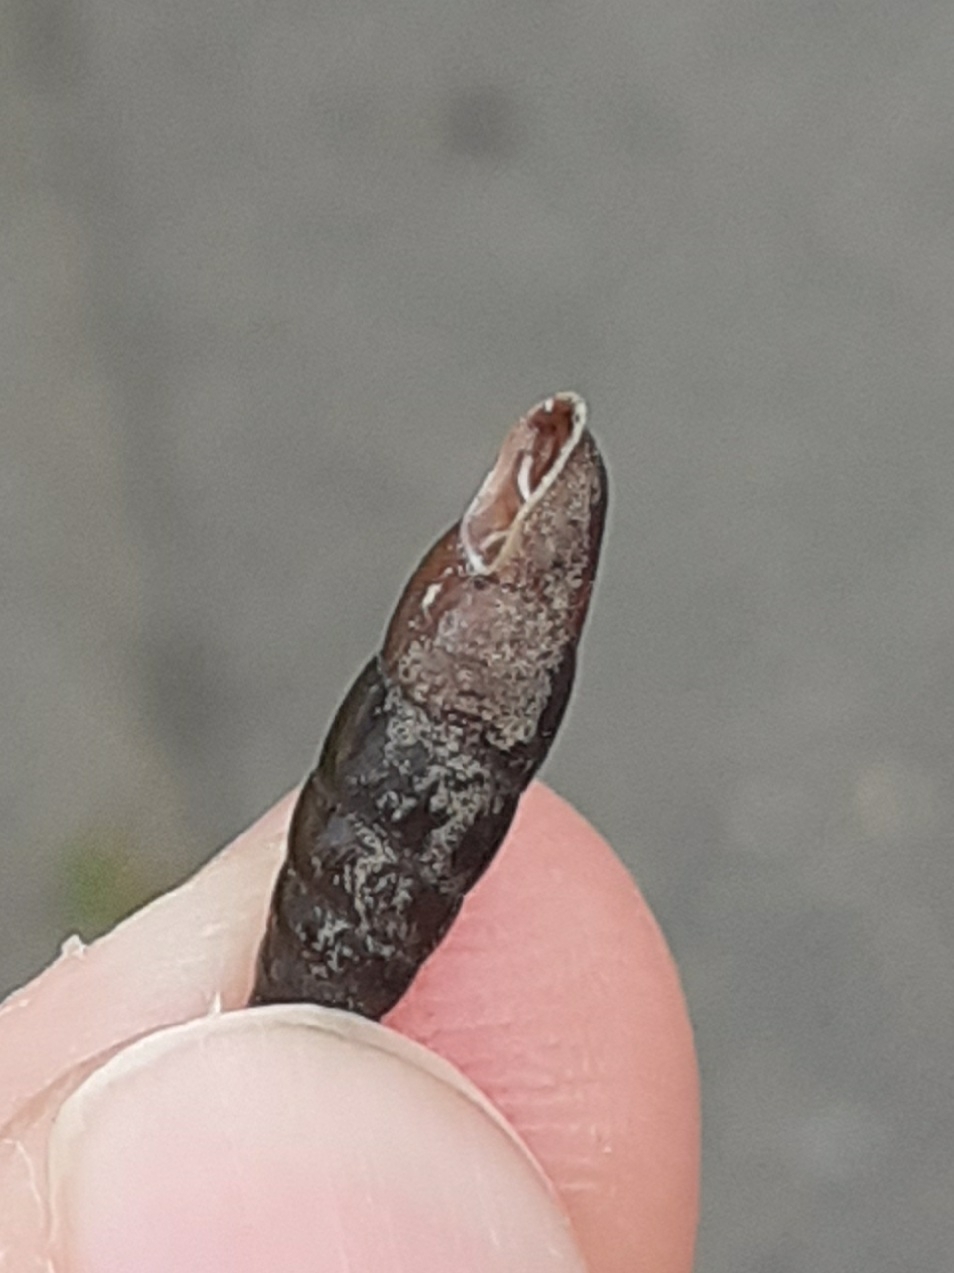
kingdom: Animalia
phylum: Mollusca
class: Gastropoda
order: Stylommatophora
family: Clausiliidae
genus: Cochlodina
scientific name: Cochlodina laminata
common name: Plaited door snail
